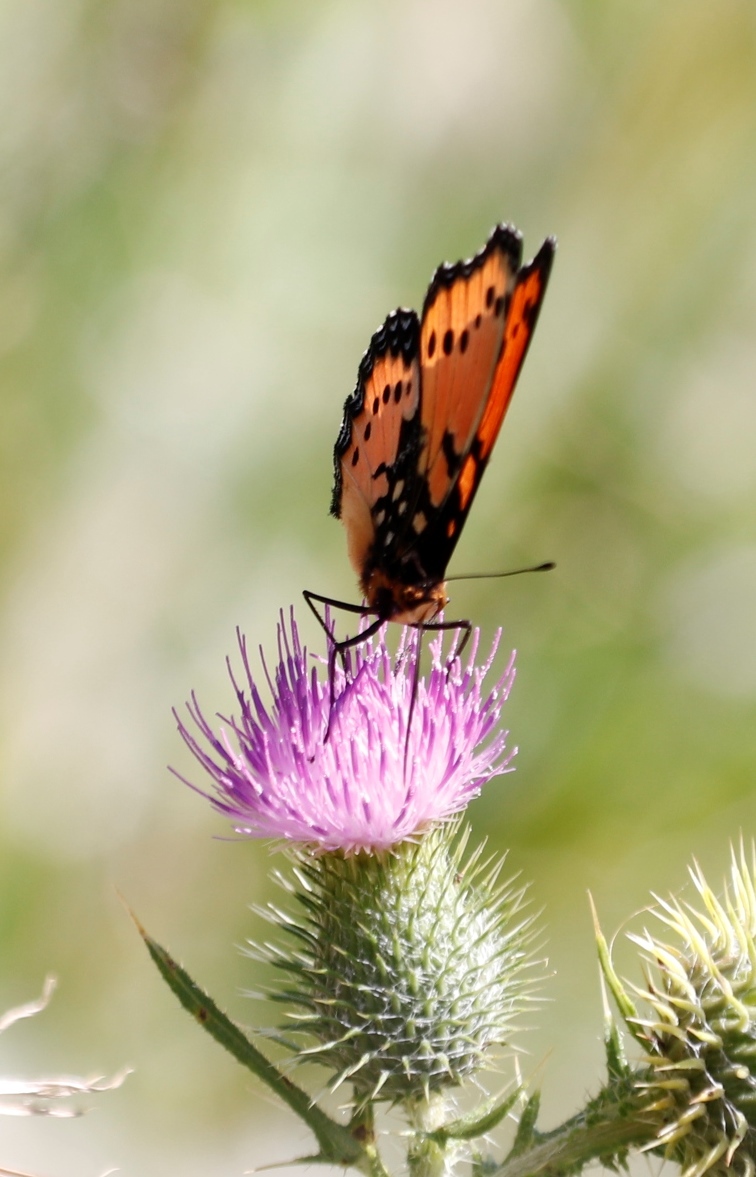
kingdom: Animalia
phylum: Arthropoda
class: Insecta
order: Lepidoptera
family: Nymphalidae
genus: Precis
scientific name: Precis octavia
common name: Gaudy commodore
